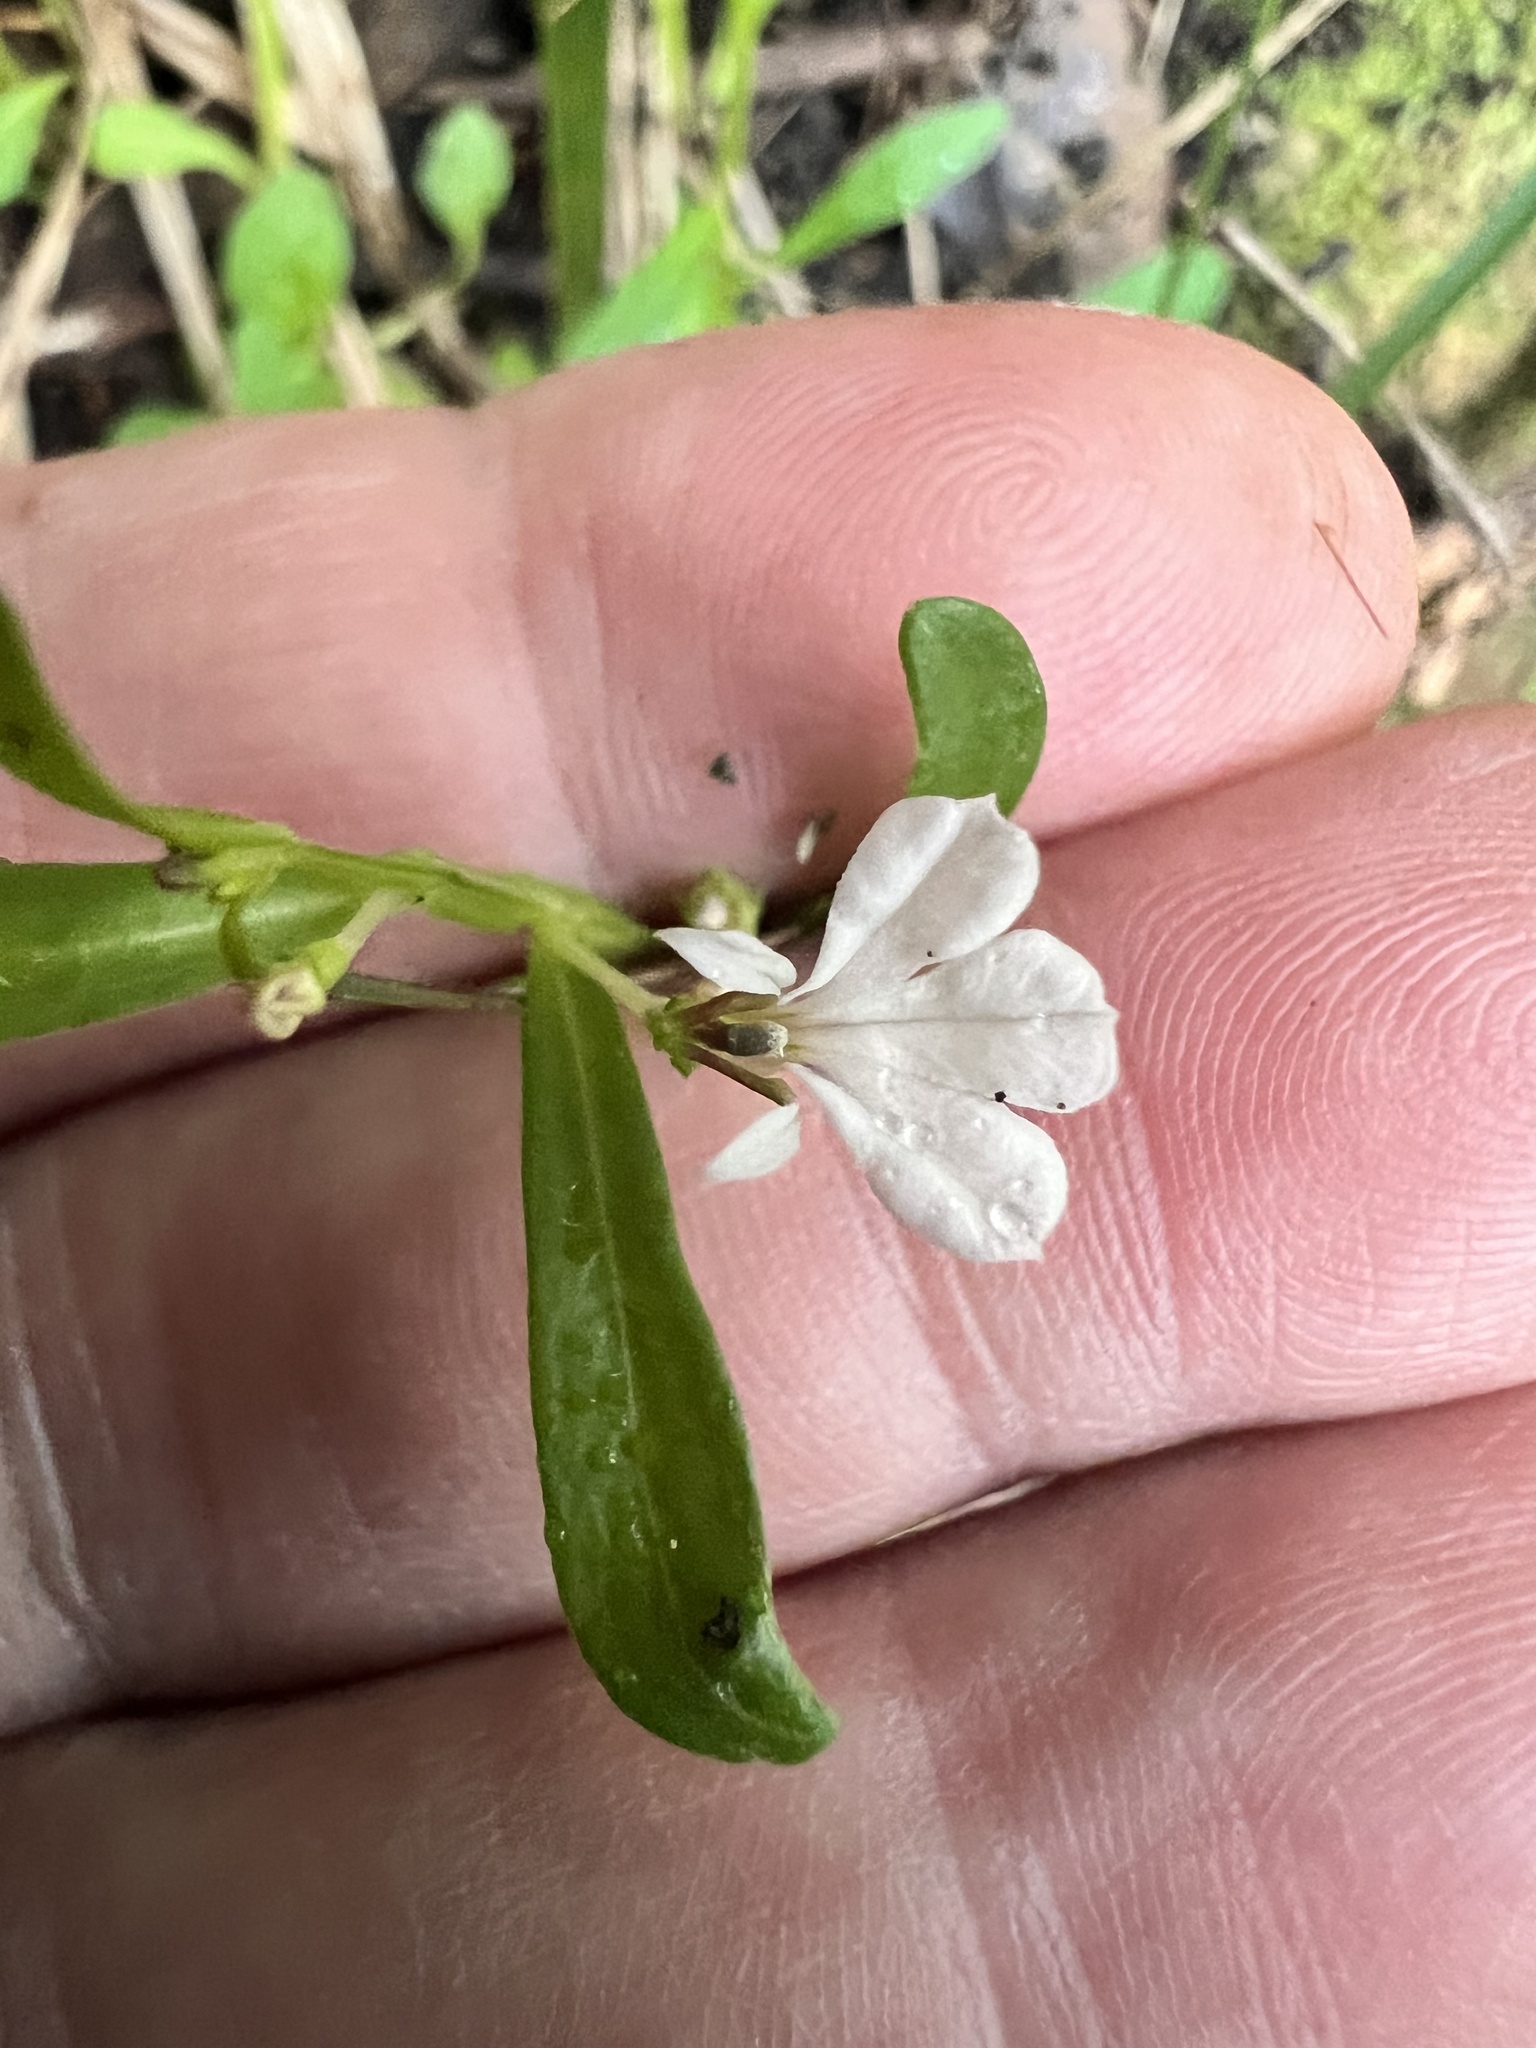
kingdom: Plantae
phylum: Tracheophyta
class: Magnoliopsida
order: Asterales
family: Campanulaceae
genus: Lobelia
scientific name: Lobelia anceps
